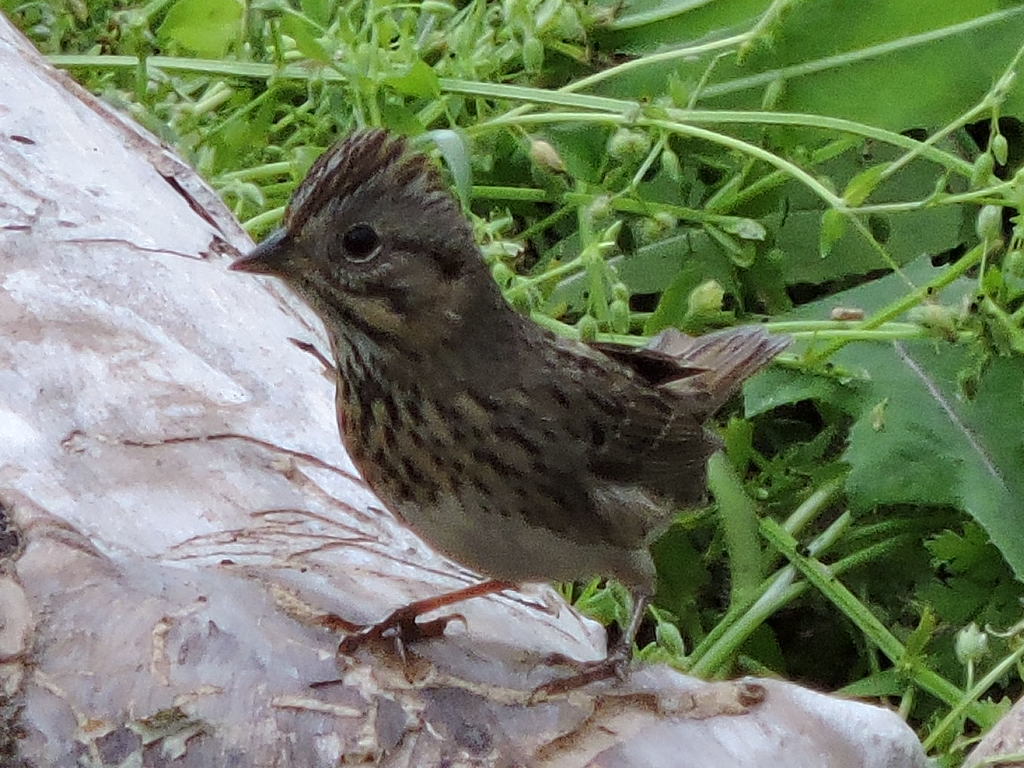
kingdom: Animalia
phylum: Chordata
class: Aves
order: Passeriformes
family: Passerellidae
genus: Melospiza
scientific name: Melospiza lincolnii
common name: Lincoln's sparrow
